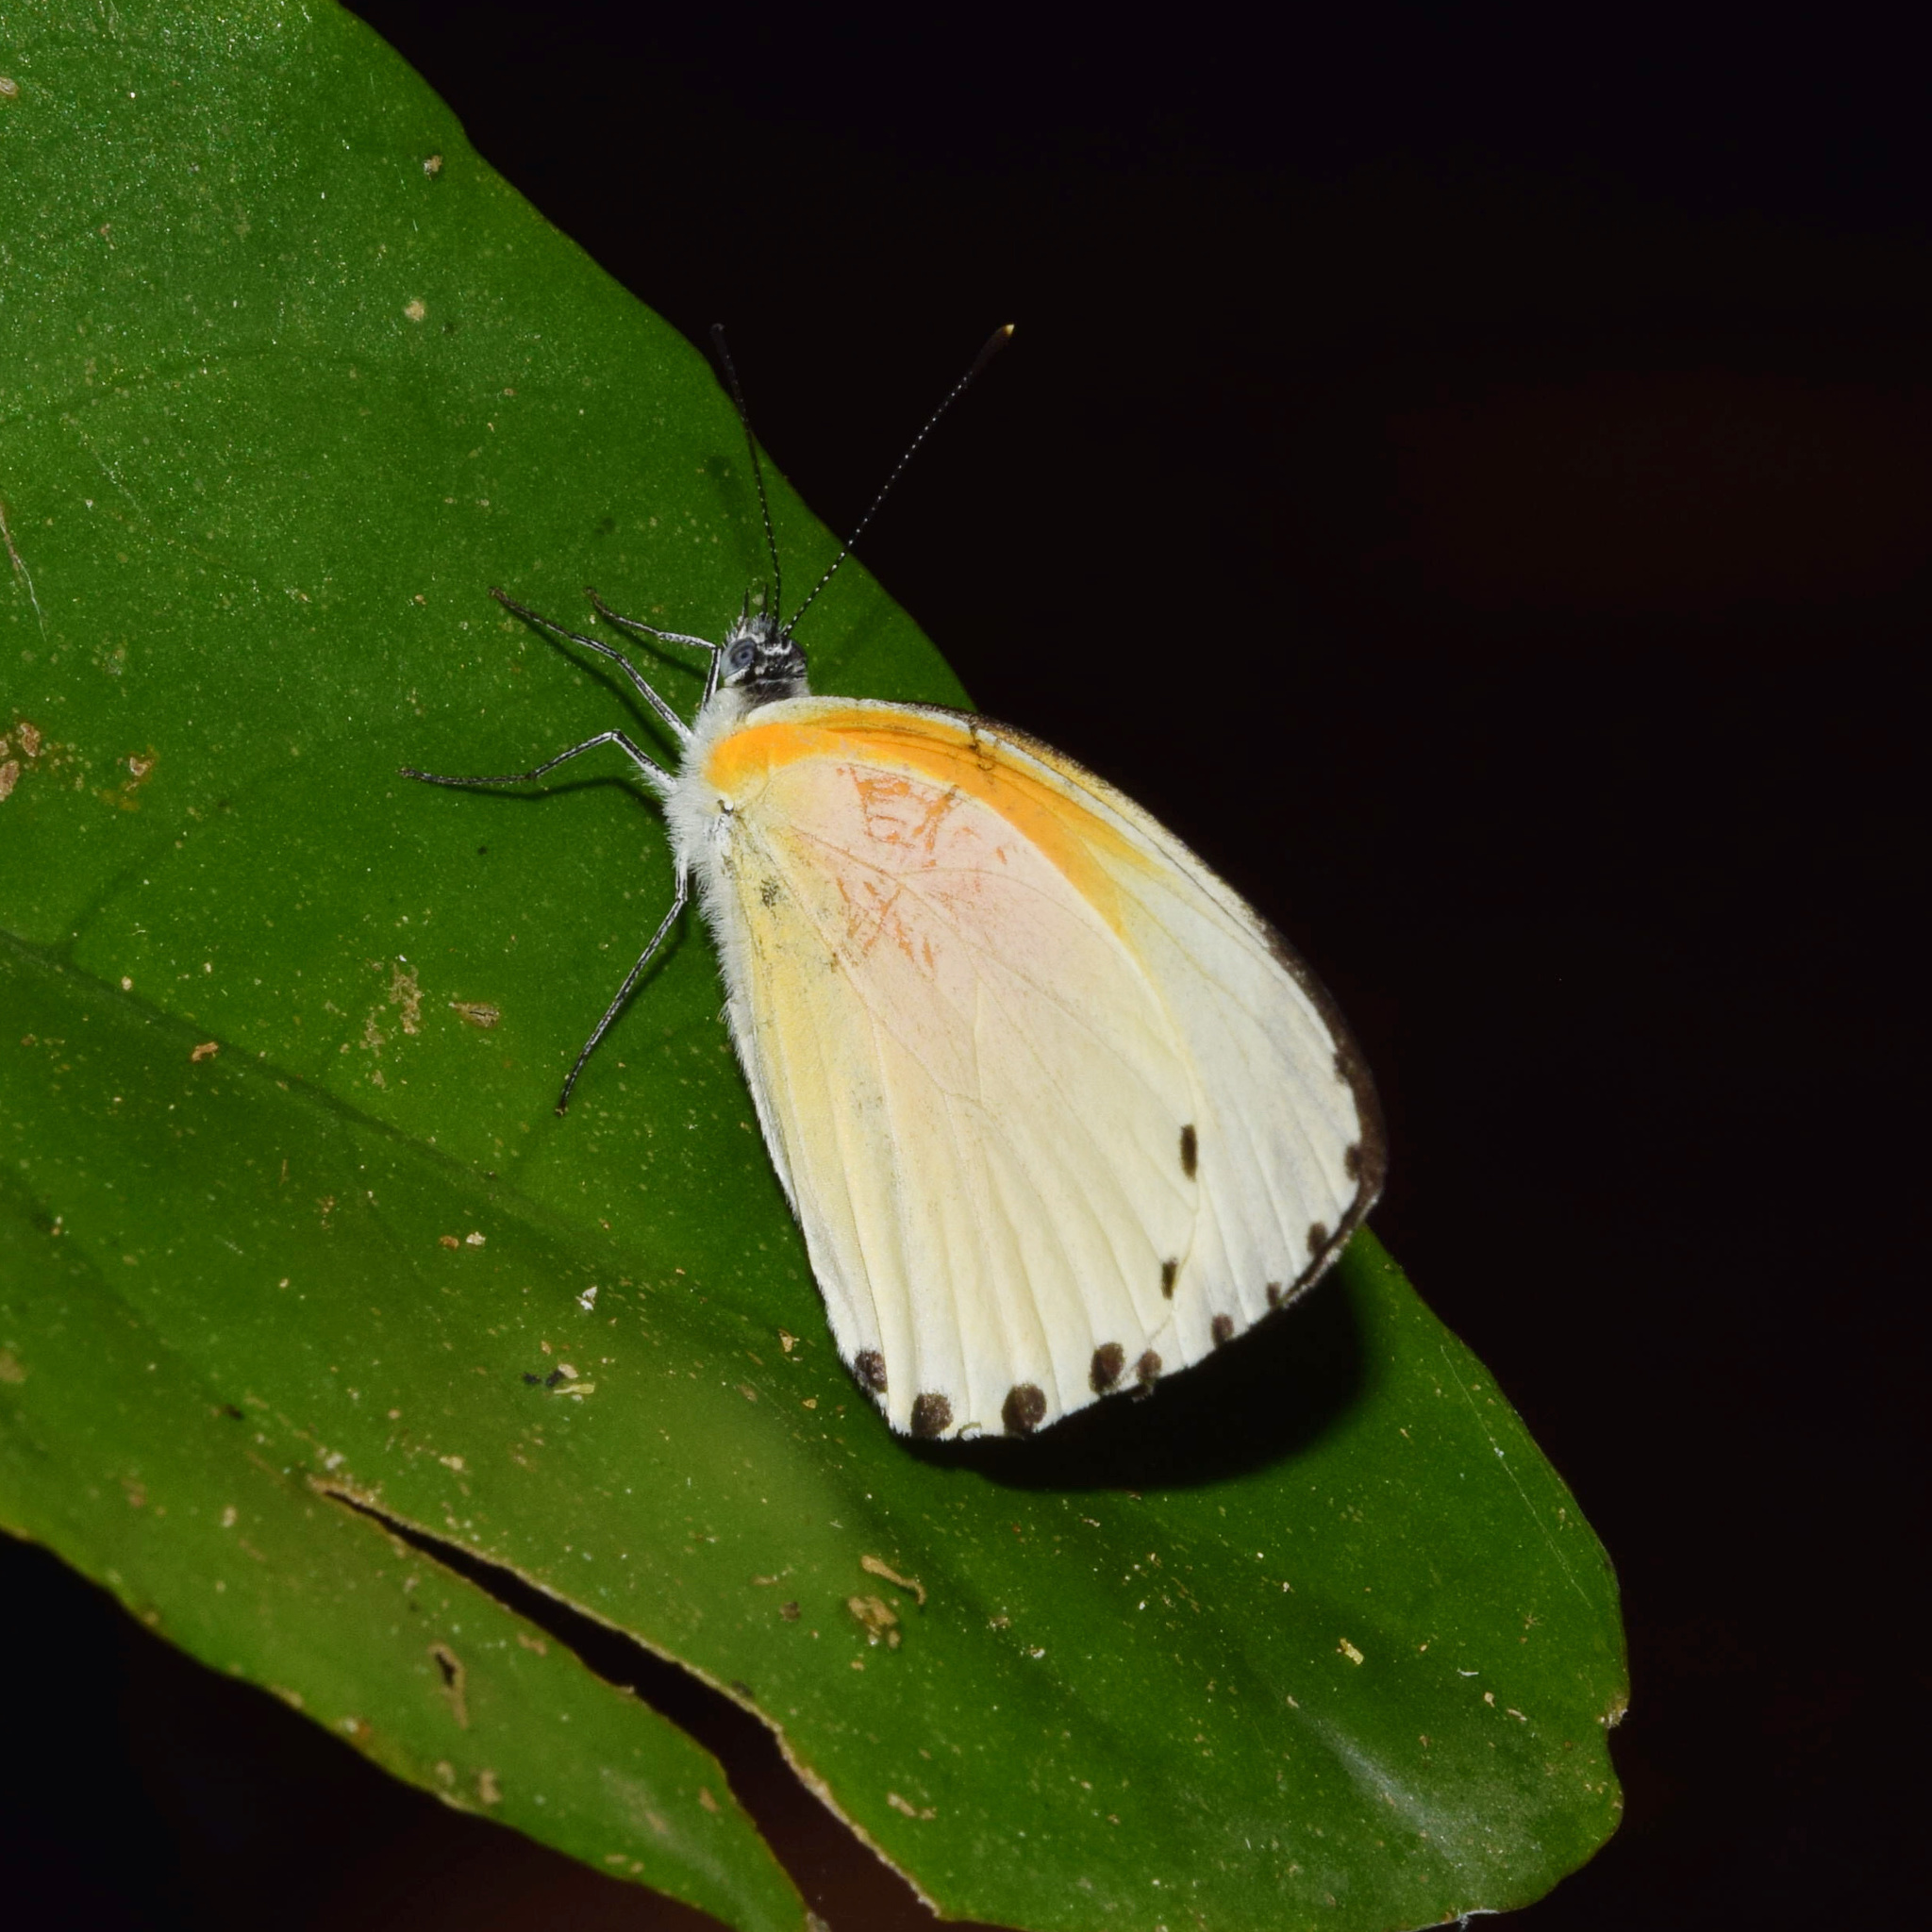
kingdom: Animalia
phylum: Arthropoda
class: Insecta
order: Lepidoptera
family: Pieridae
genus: Mylothris
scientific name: Mylothris rueppellii
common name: Twin dotted border
